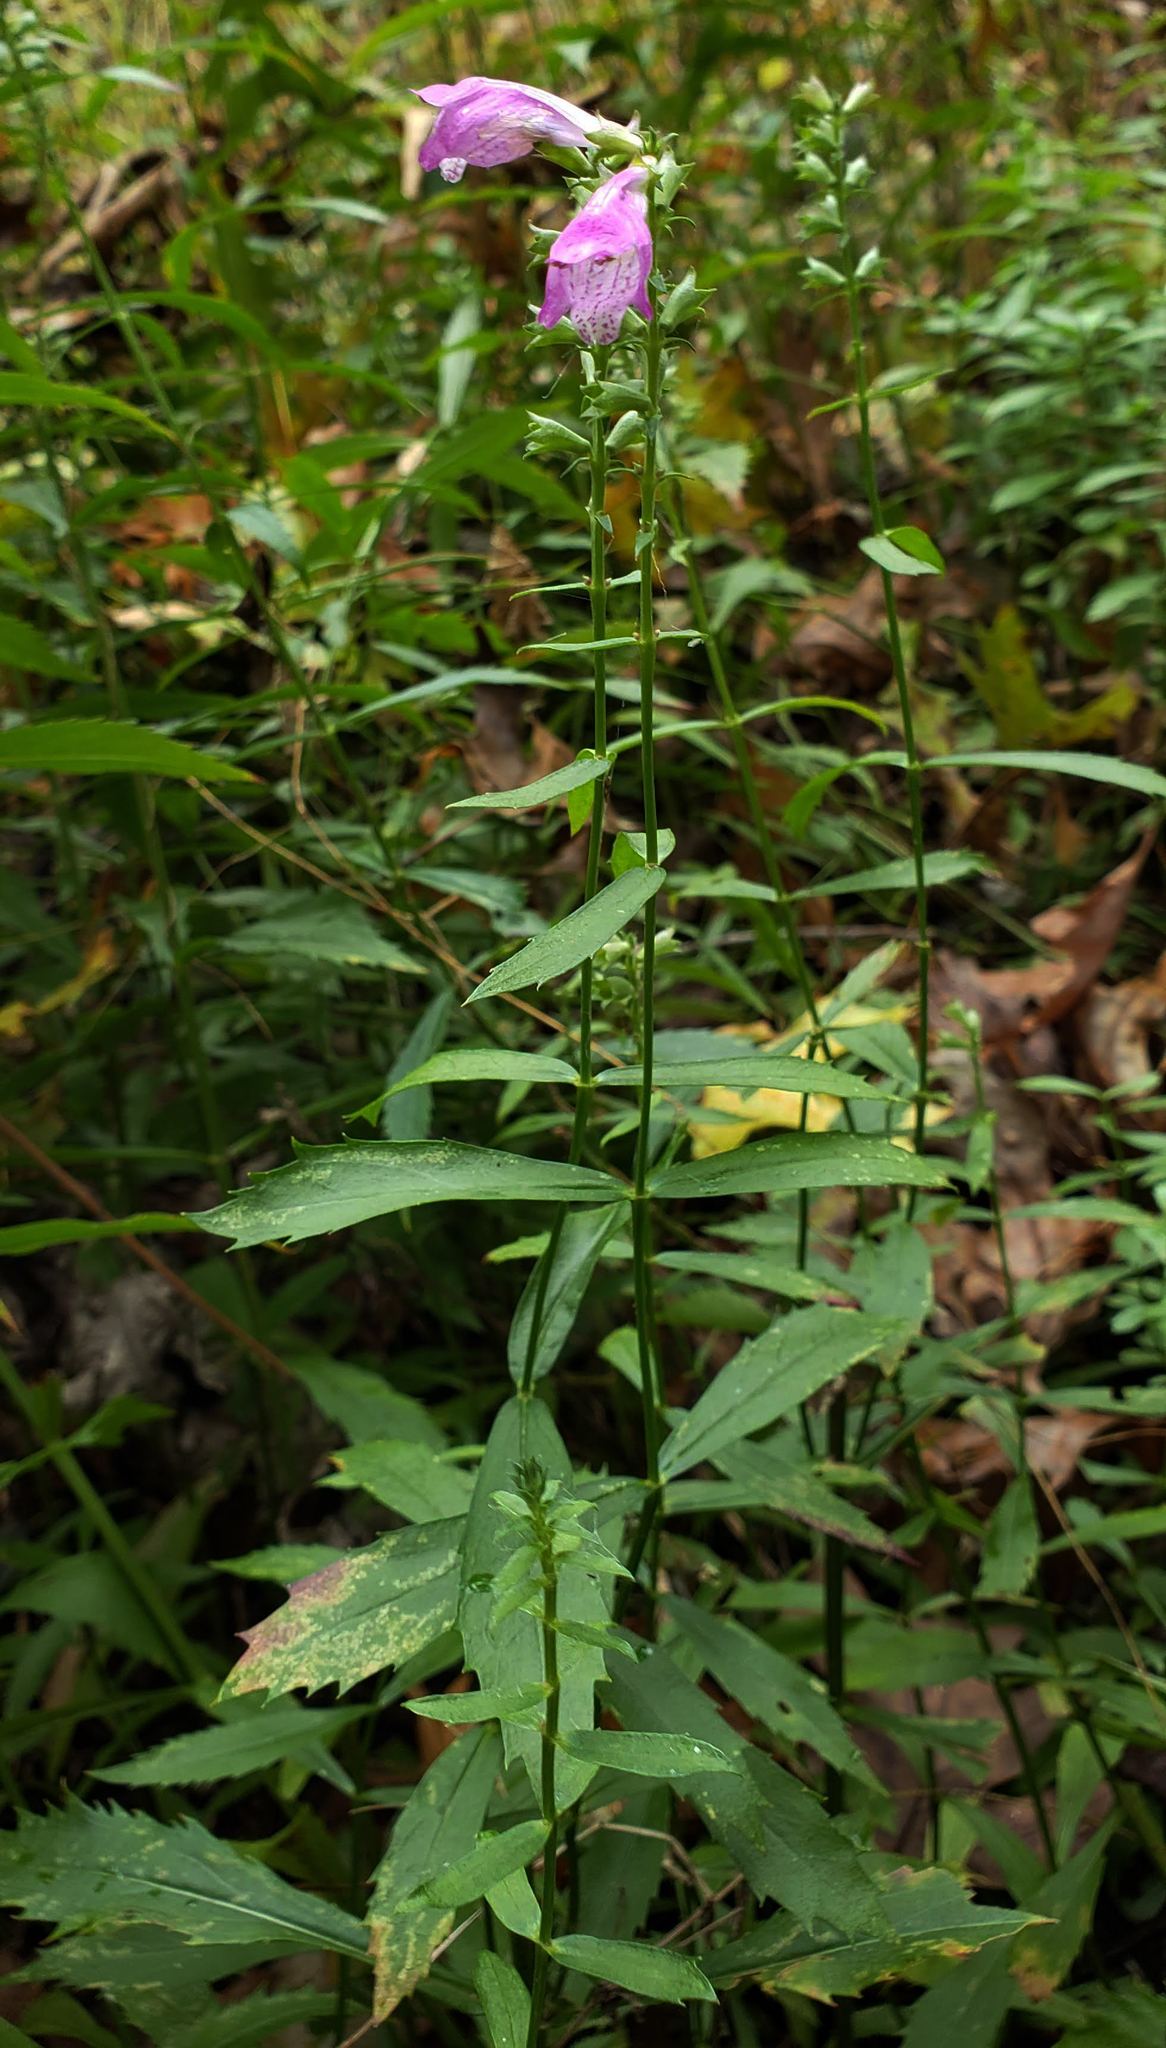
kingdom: Plantae
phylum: Tracheophyta
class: Magnoliopsida
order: Lamiales
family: Lamiaceae
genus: Physostegia
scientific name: Physostegia virginiana
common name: Obedient-plant
